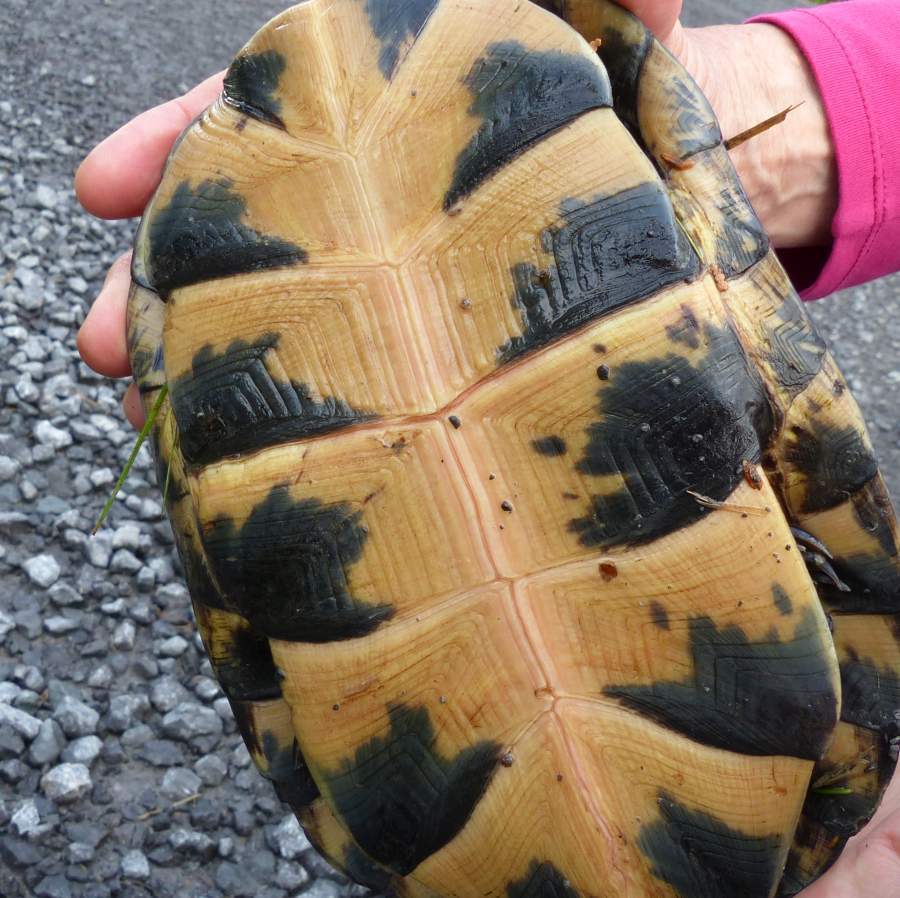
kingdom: Animalia
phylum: Chordata
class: Testudines
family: Emydidae
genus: Emys
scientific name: Emys blandingii
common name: Blanding's turtle
